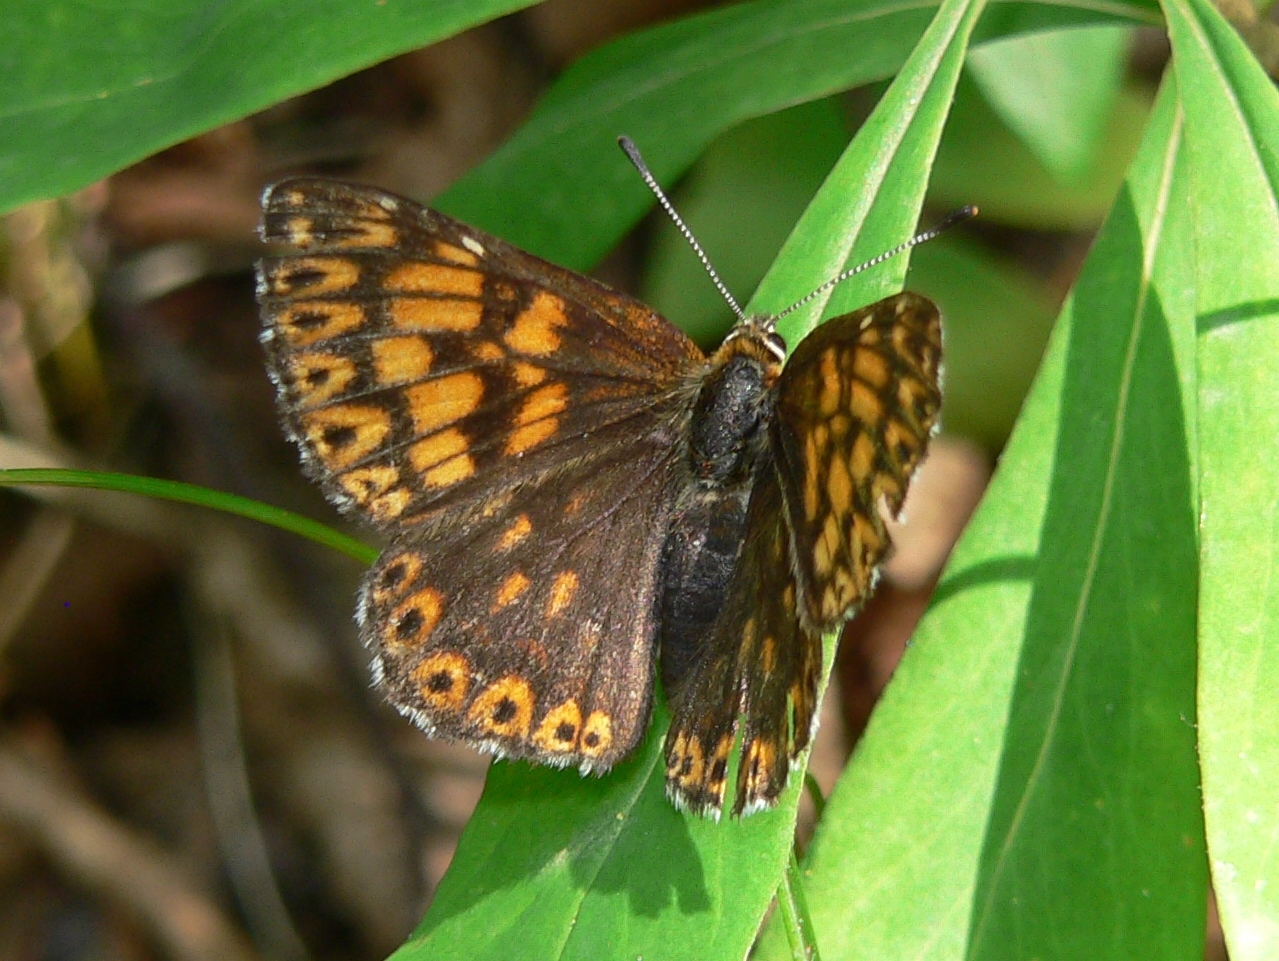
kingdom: Animalia
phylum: Arthropoda
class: Insecta
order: Lepidoptera
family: Riodinidae
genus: Hamearis
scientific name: Hamearis lucina
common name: Duke of burgundy fritillary
